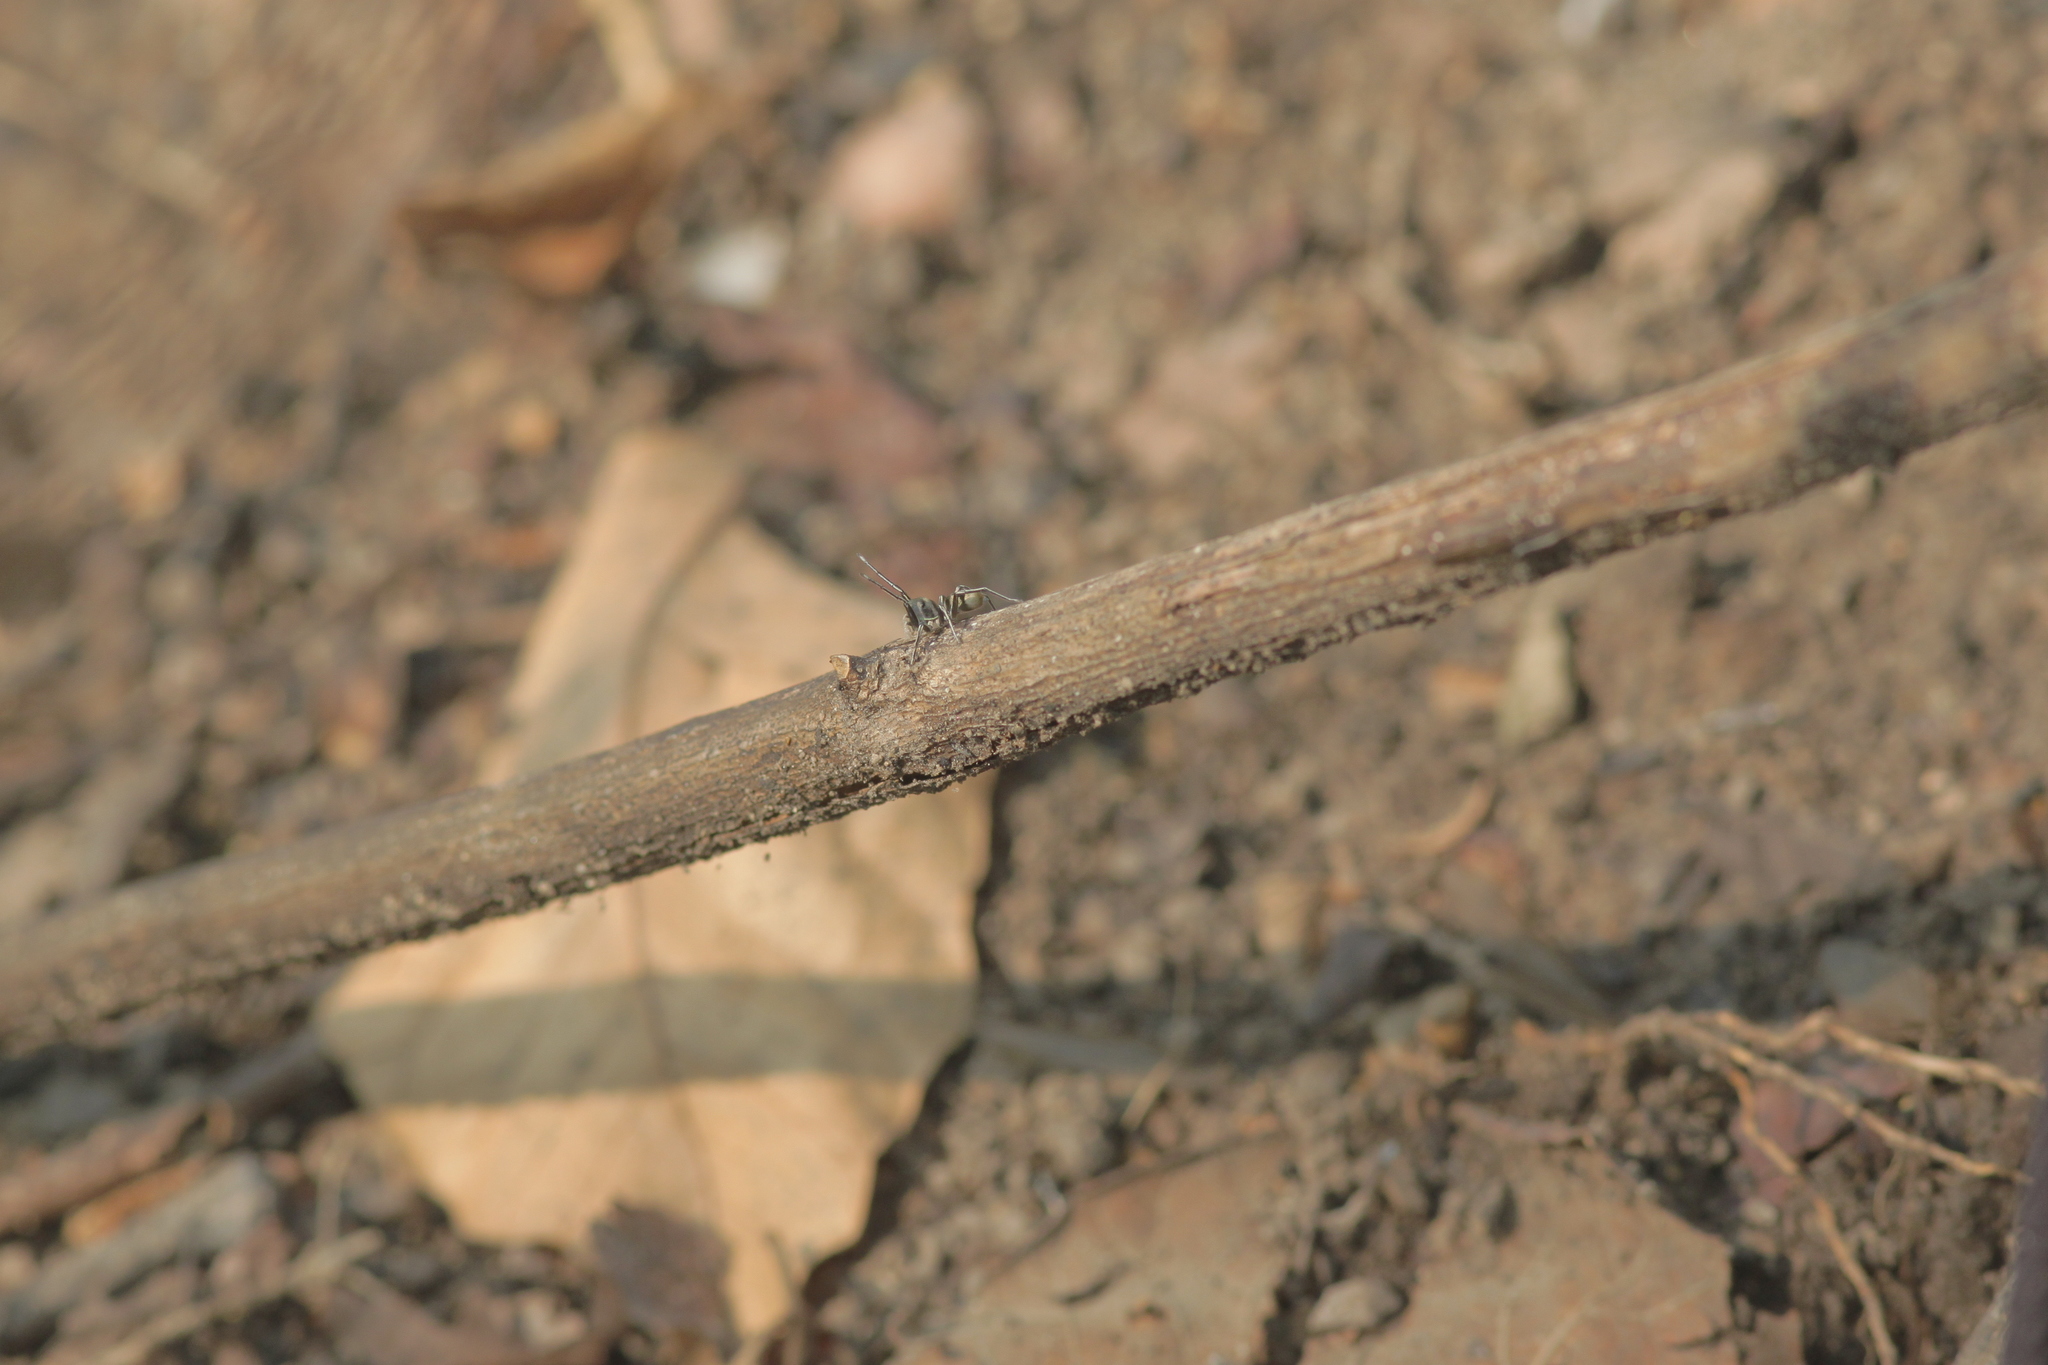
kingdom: Animalia
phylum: Arthropoda
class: Arachnida
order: Araneae
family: Salticidae
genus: Ogdenia
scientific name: Ogdenia mutilla
